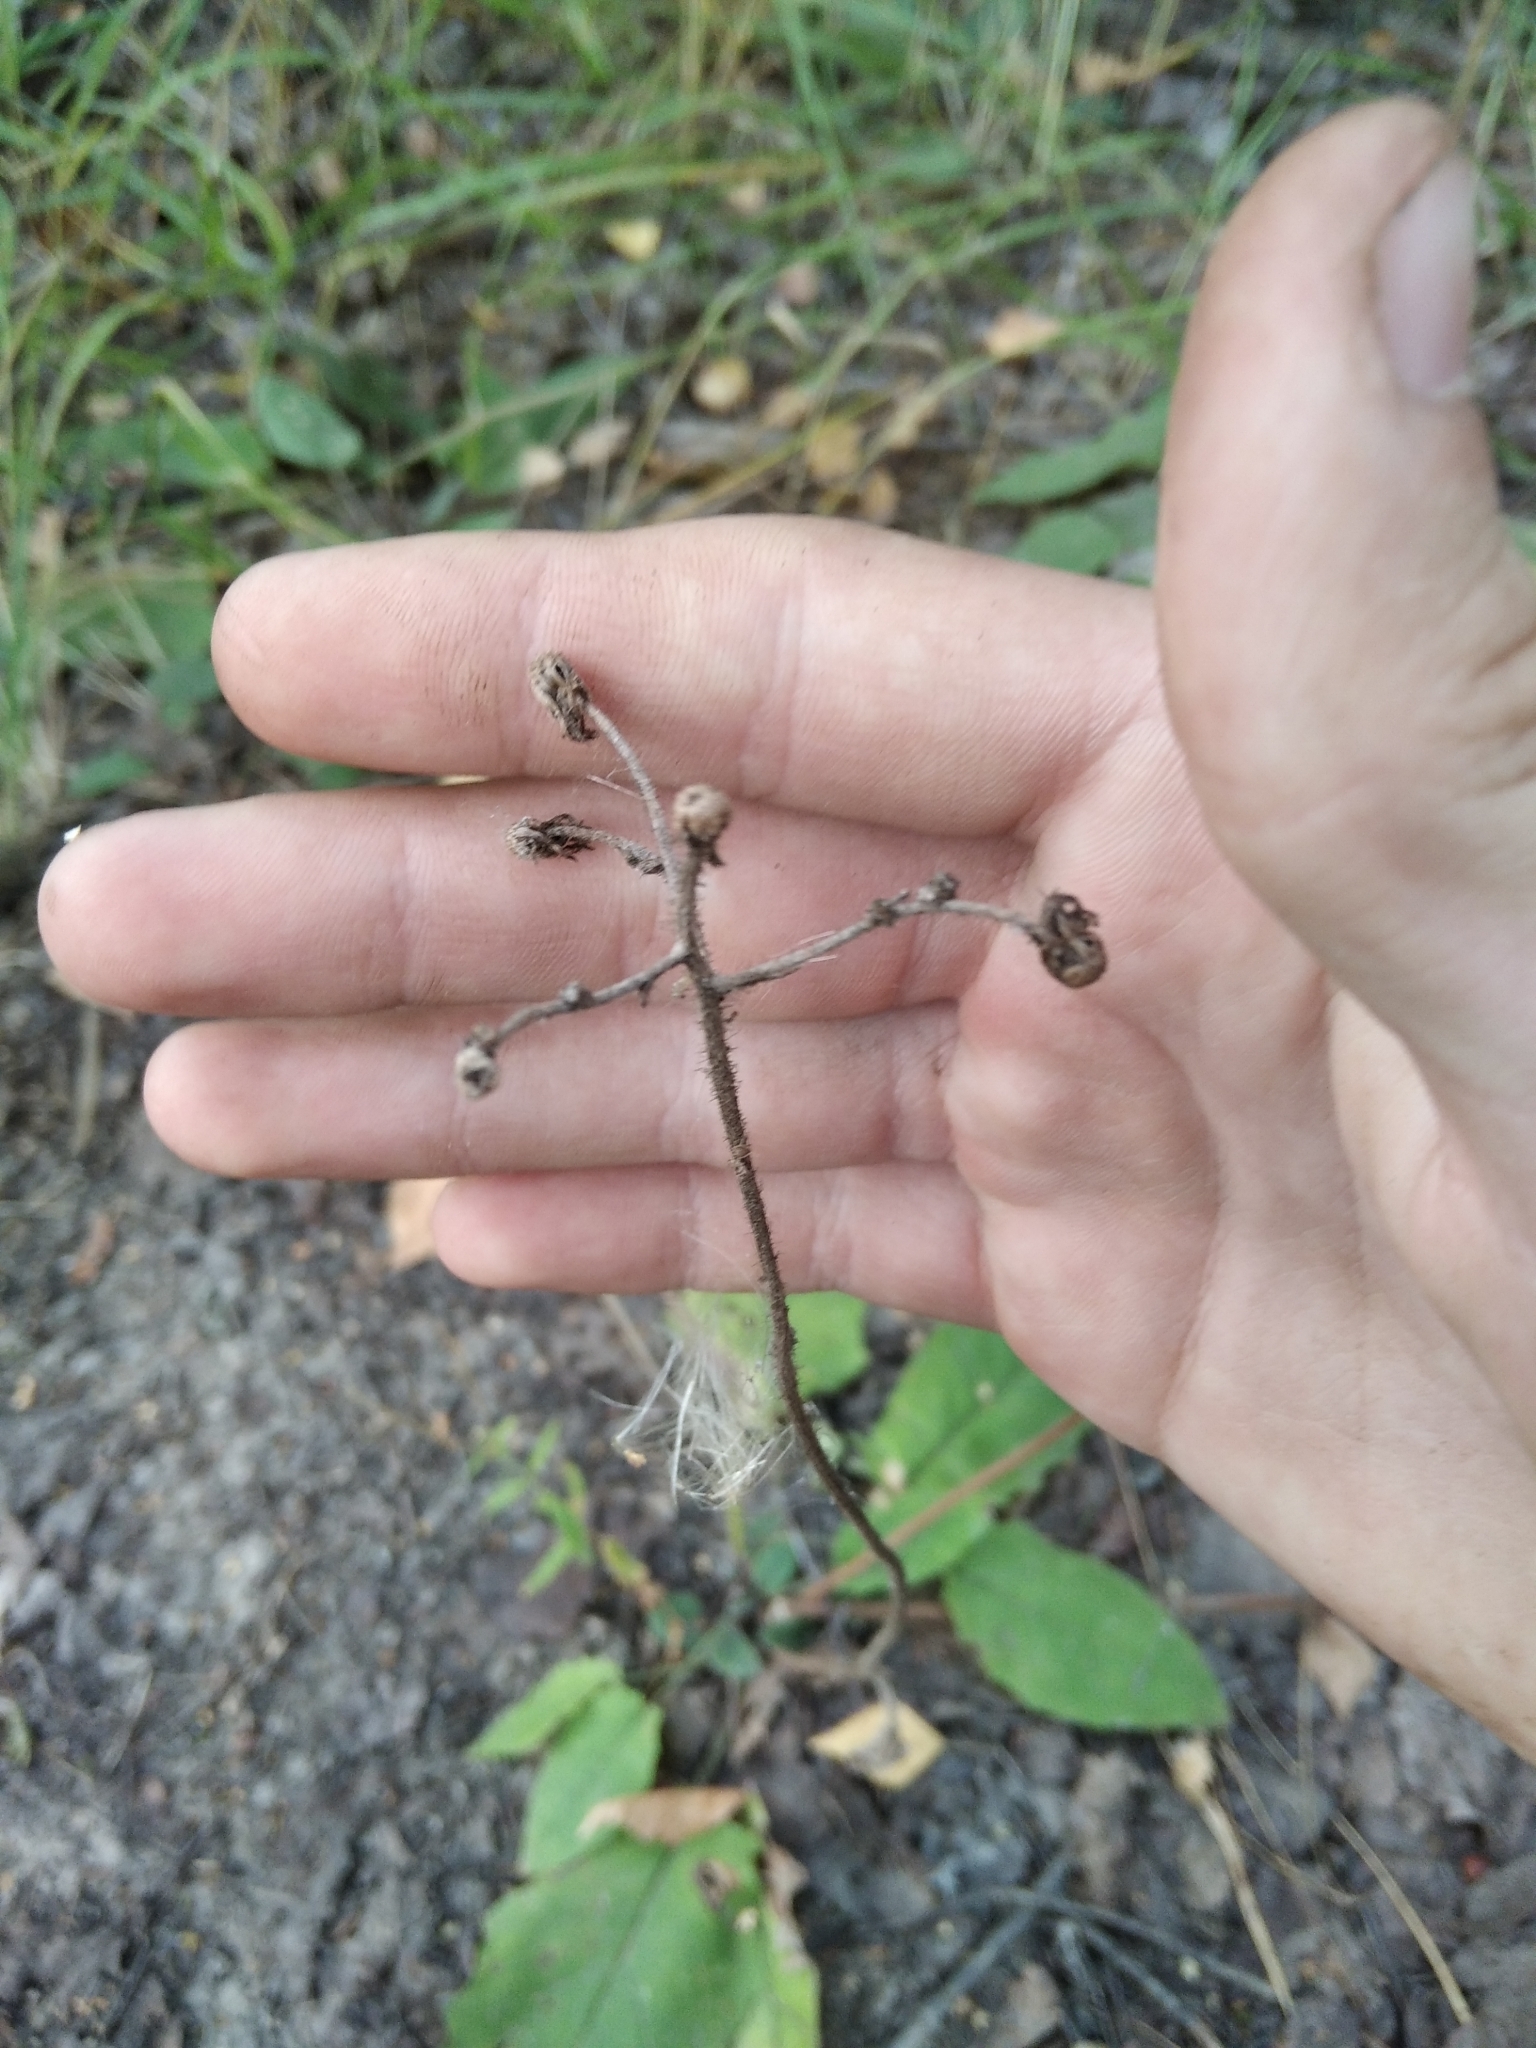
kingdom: Plantae
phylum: Tracheophyta
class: Magnoliopsida
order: Asterales
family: Asteraceae
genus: Hieracium
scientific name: Hieracium murorum
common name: Wall hawkweed
